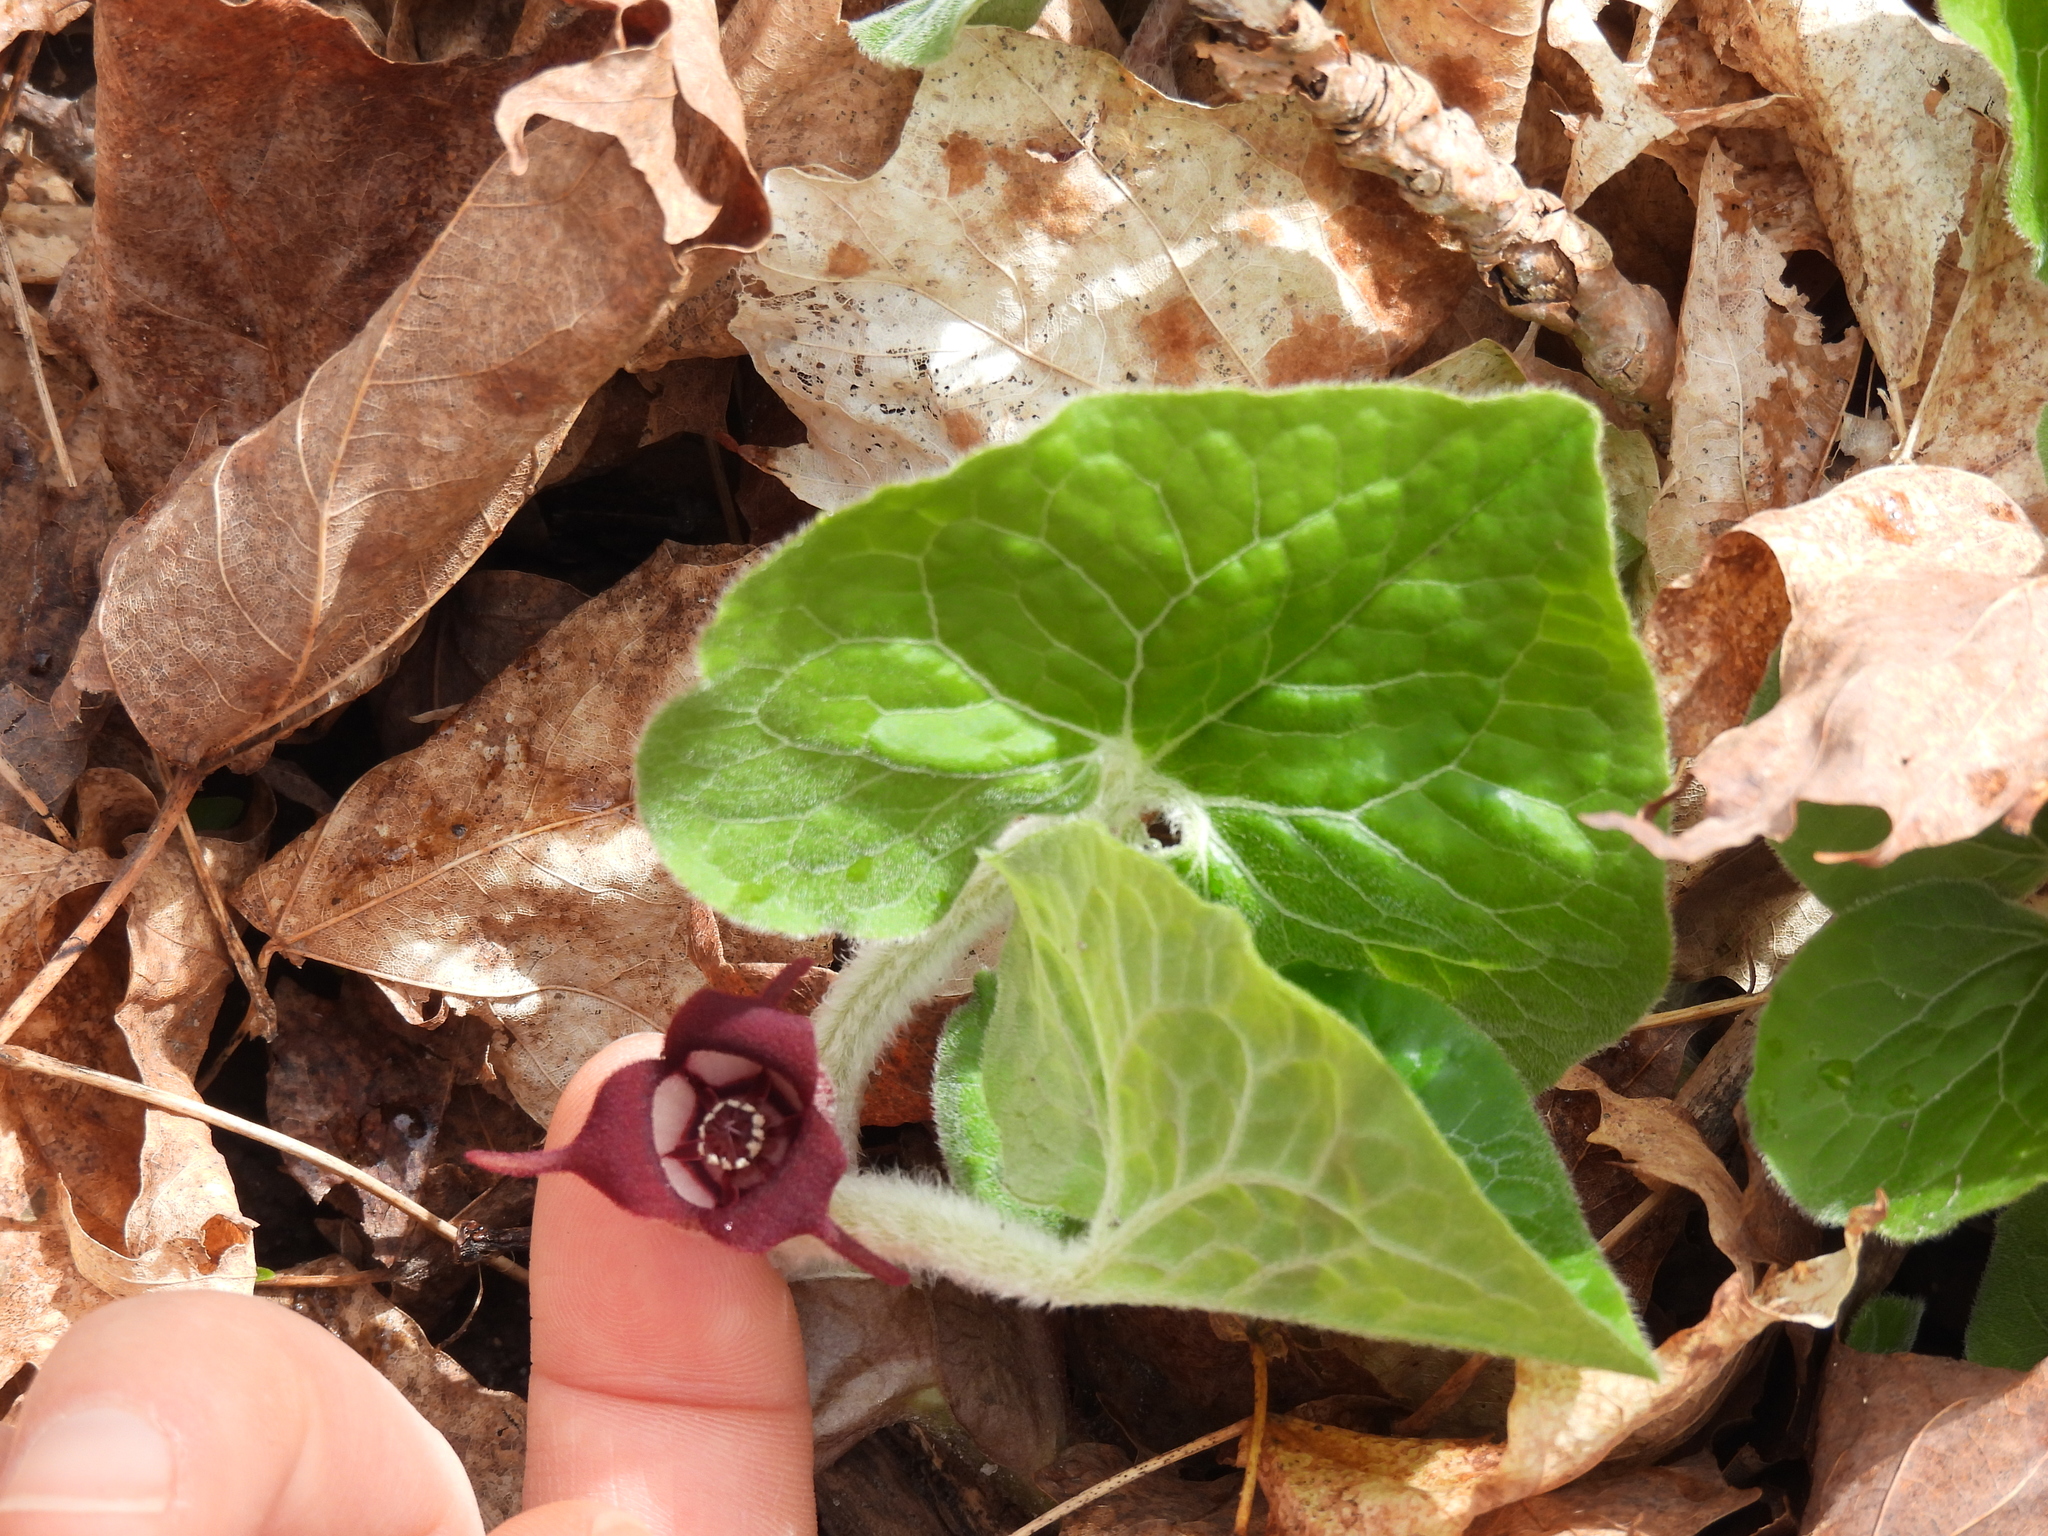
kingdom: Plantae
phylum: Tracheophyta
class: Magnoliopsida
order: Piperales
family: Aristolochiaceae
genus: Asarum
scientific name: Asarum canadense
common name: Wild ginger
